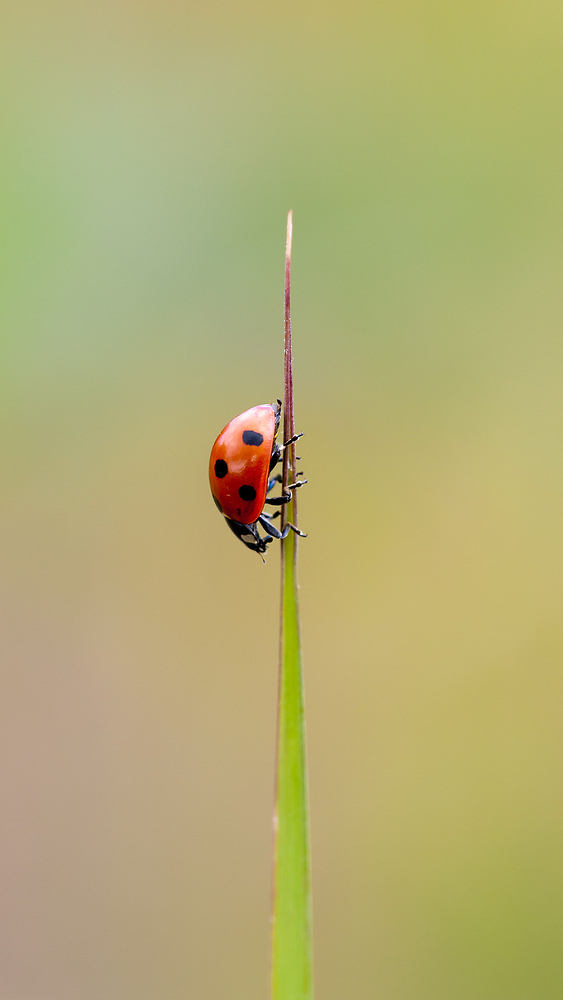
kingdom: Animalia
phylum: Arthropoda
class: Insecta
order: Coleoptera
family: Coccinellidae
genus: Coccinella
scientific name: Coccinella septempunctata
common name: Sevenspotted lady beetle
